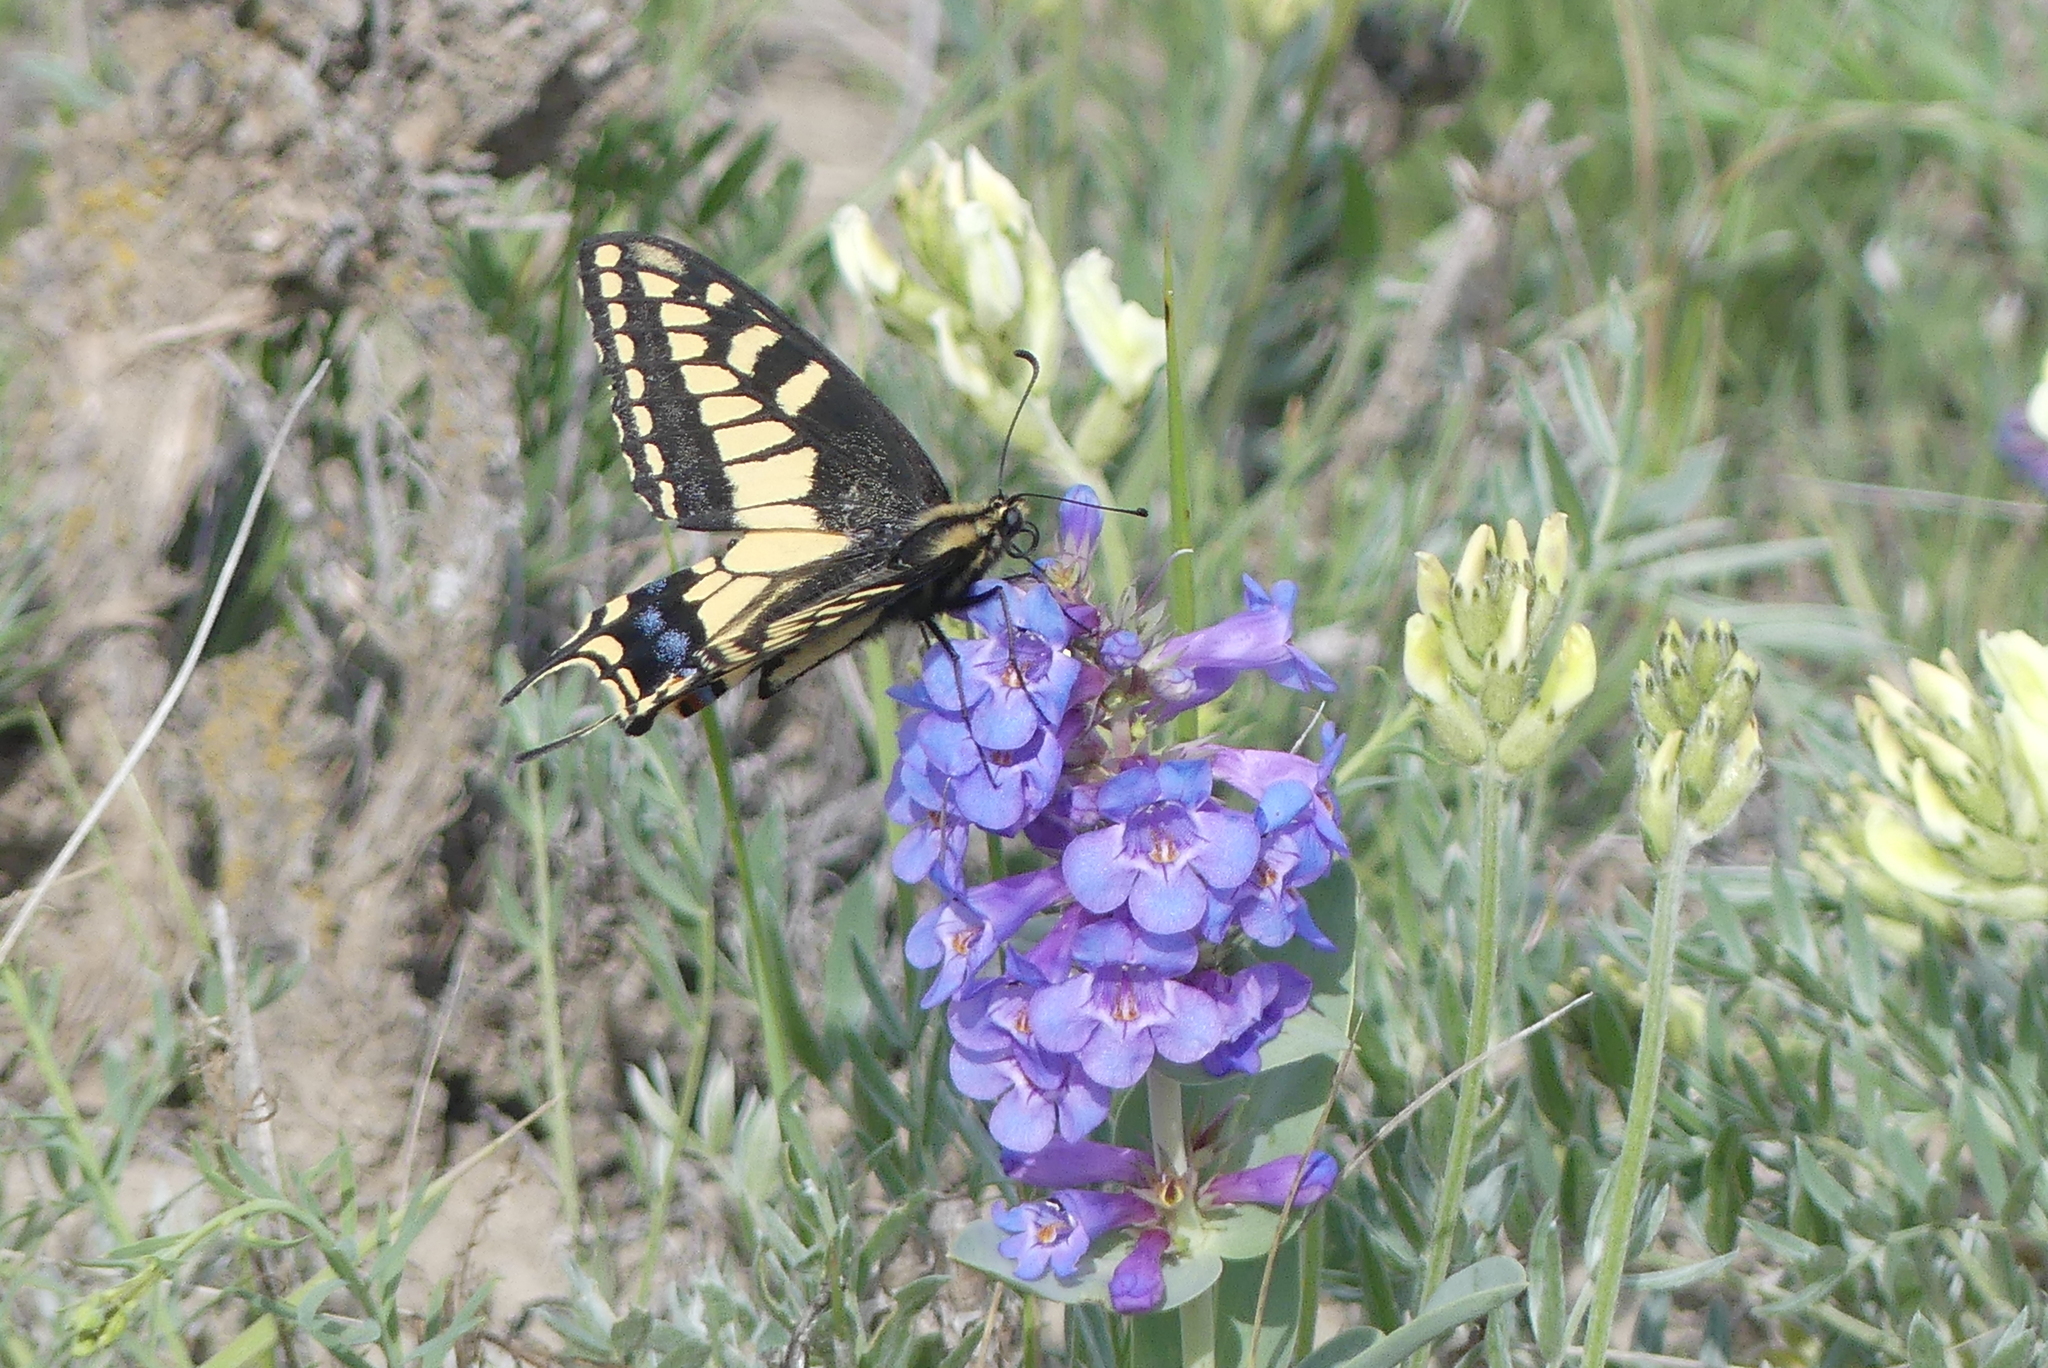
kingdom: Animalia
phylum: Arthropoda
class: Insecta
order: Lepidoptera
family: Papilionidae
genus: Papilio
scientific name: Papilio zelicaon
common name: Anise swallowtail
